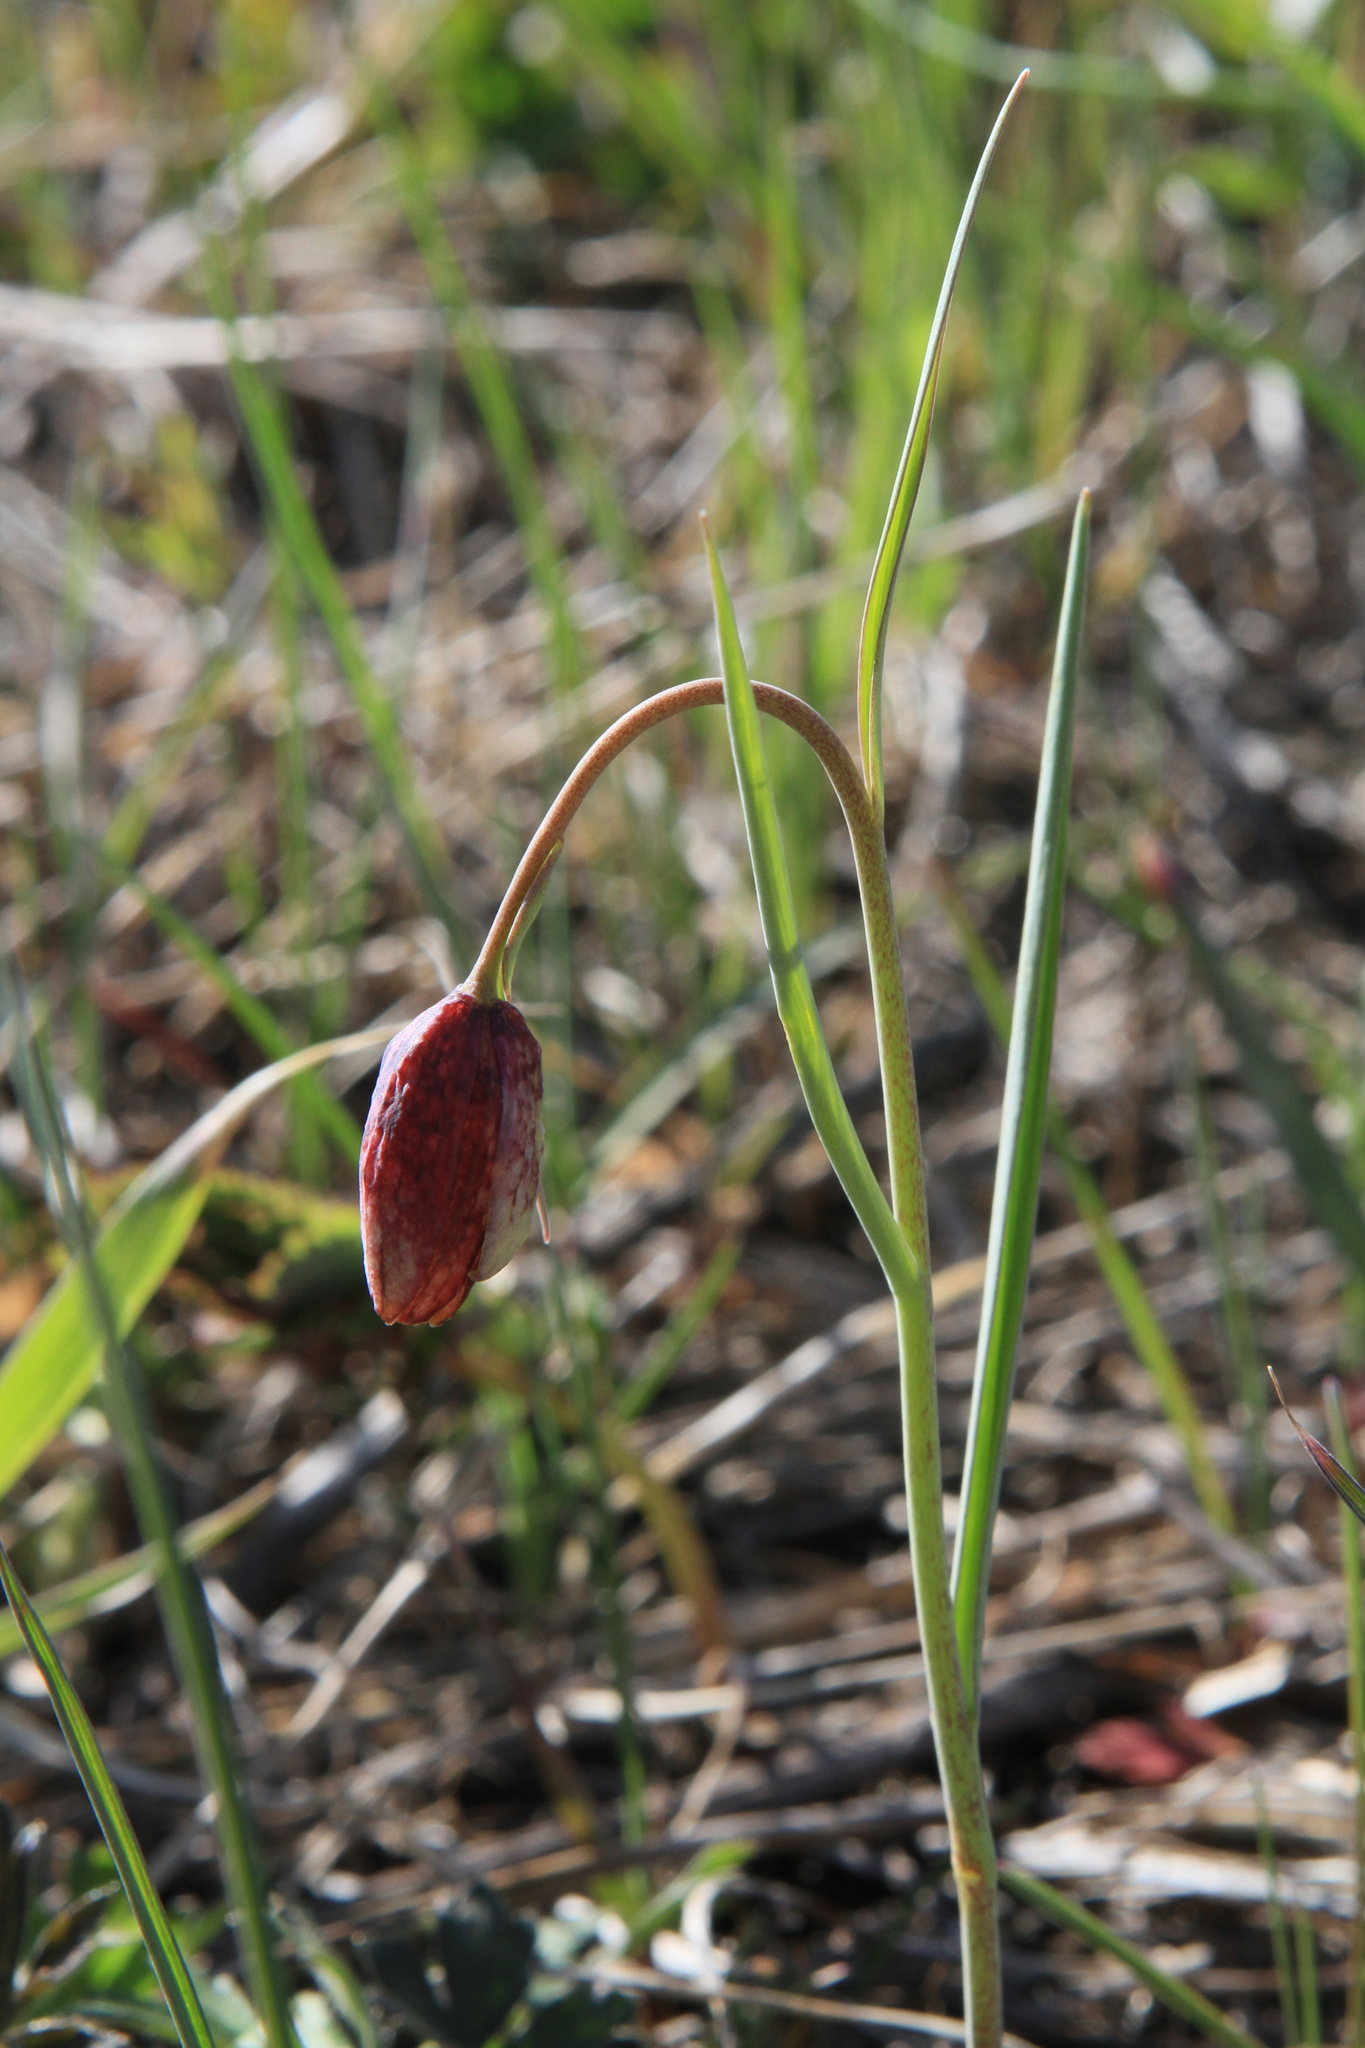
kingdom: Plantae
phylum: Tracheophyta
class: Liliopsida
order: Liliales
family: Liliaceae
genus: Fritillaria
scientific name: Fritillaria meleagroides
